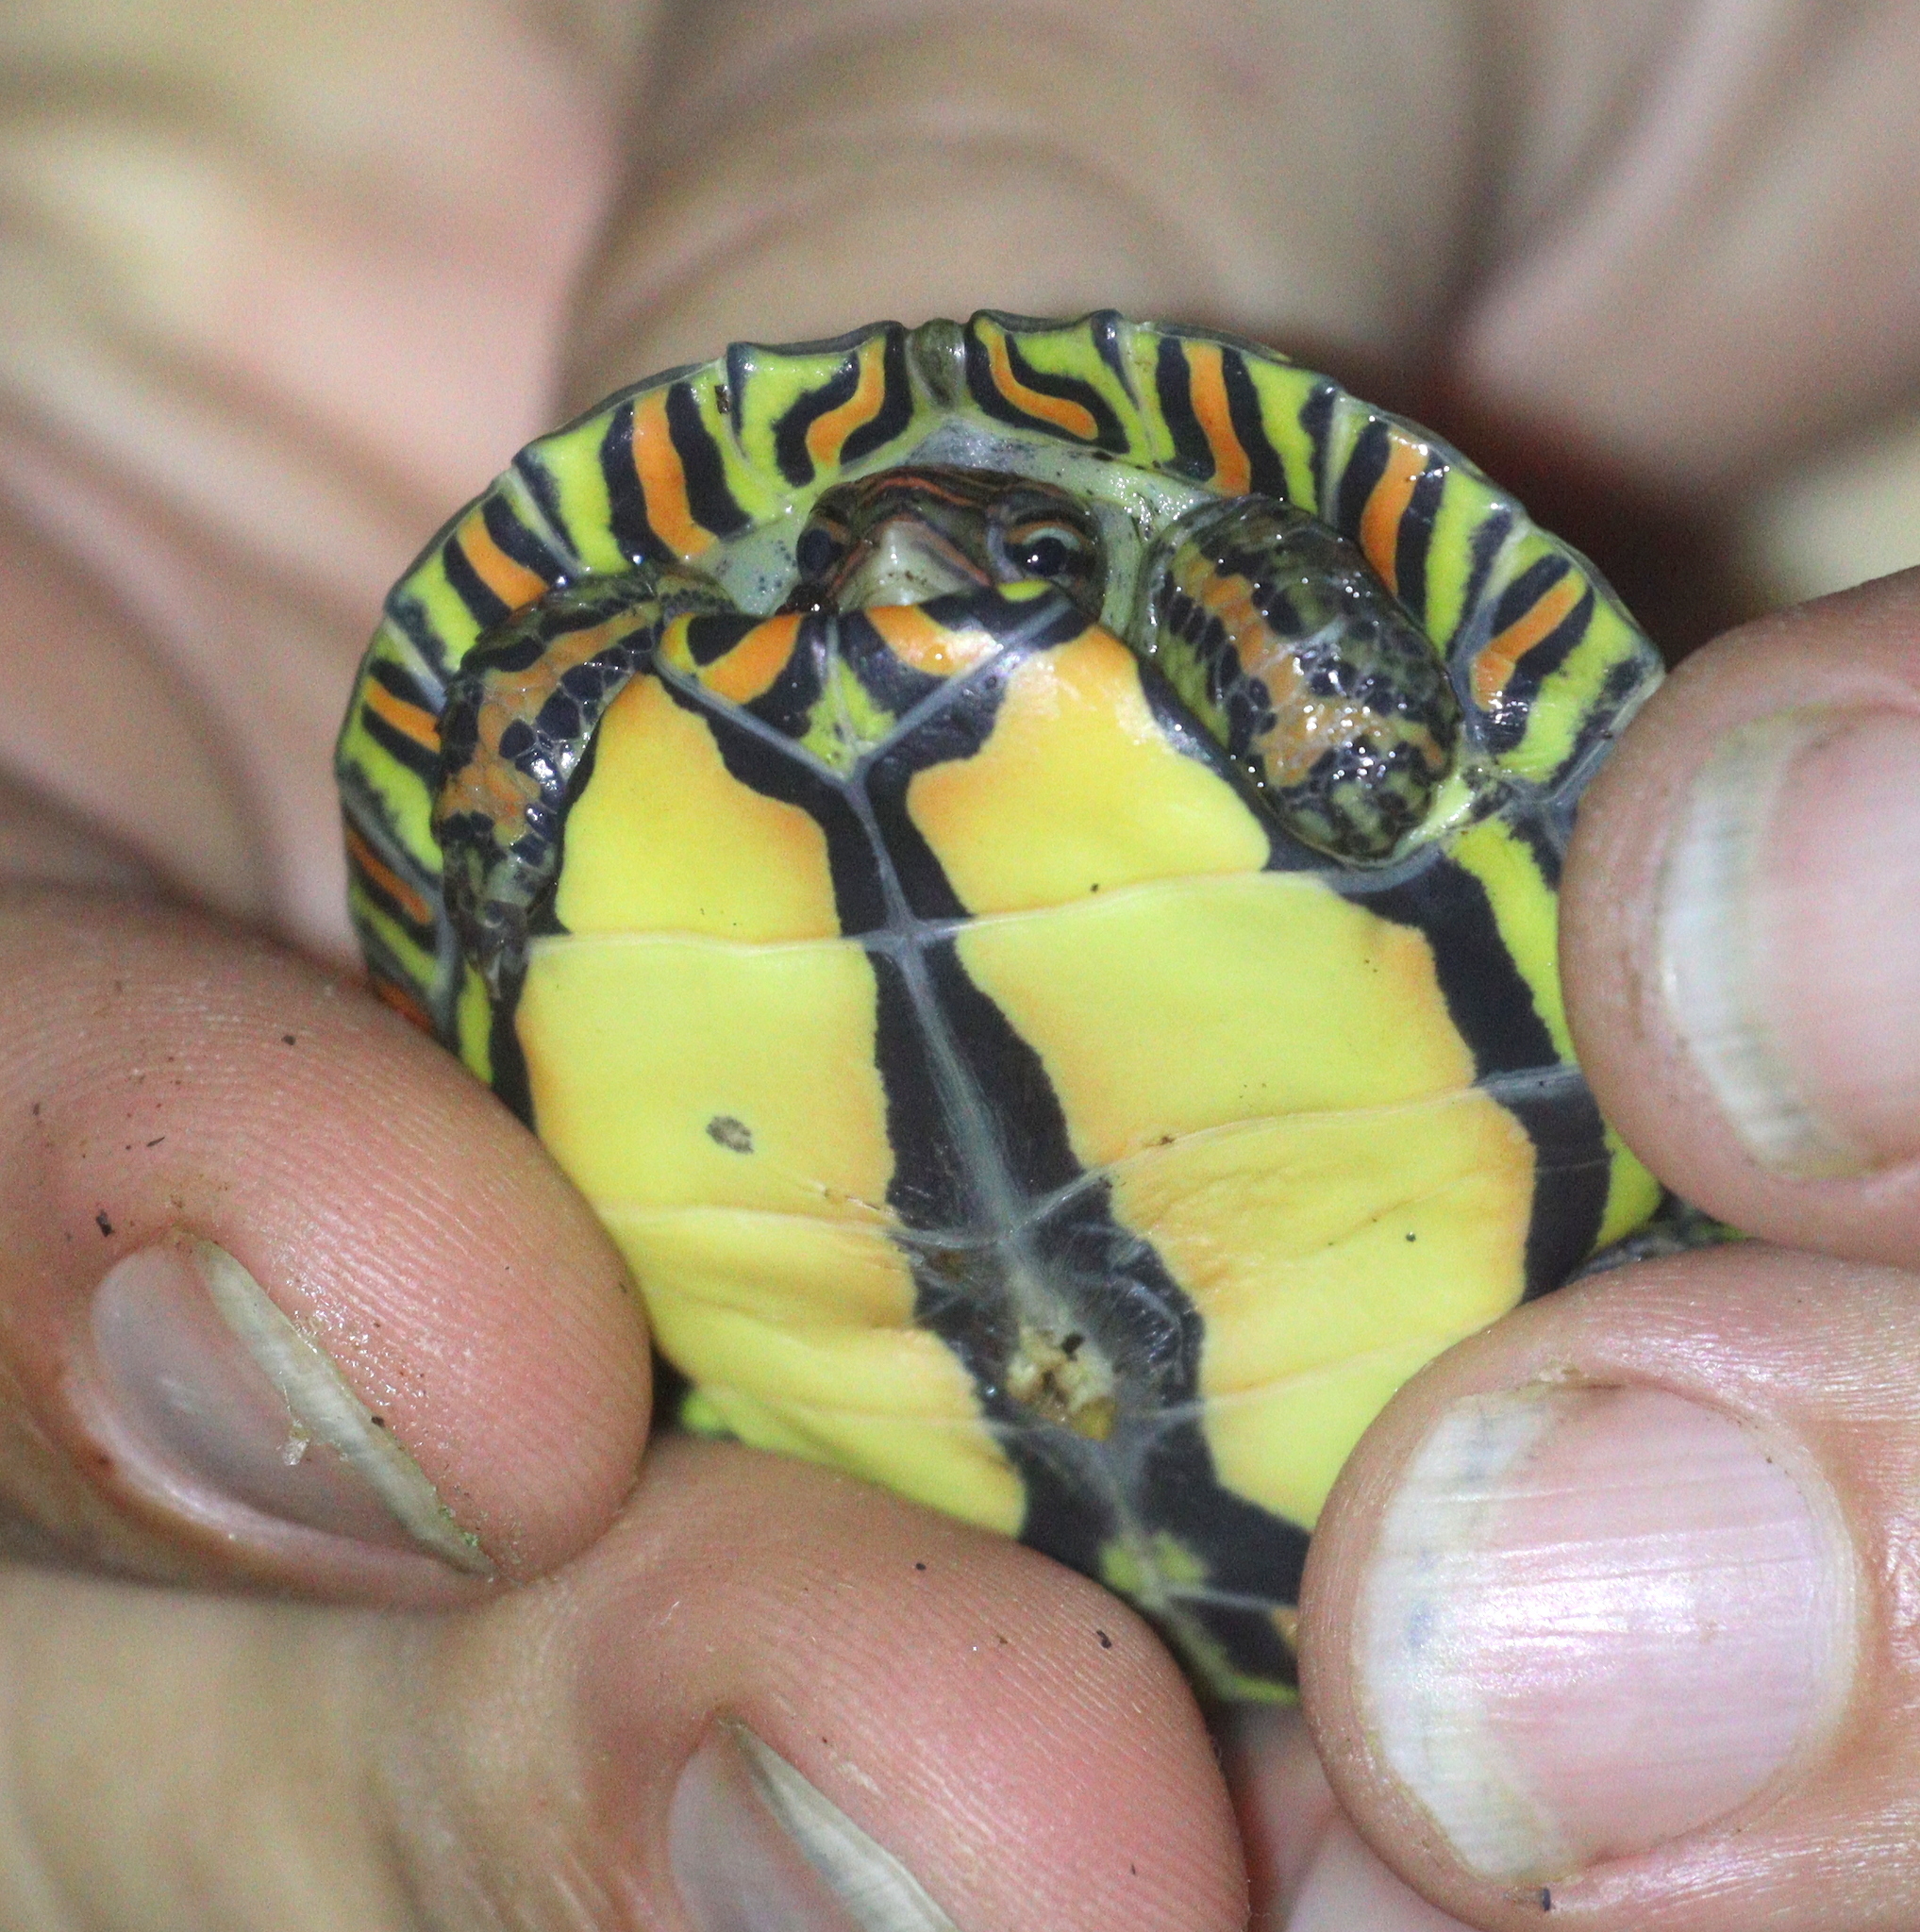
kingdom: Animalia
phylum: Chordata
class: Testudines
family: Geoemydidae
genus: Rhinoclemmys
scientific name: Rhinoclemmys pulcherrima
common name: Painted wood turtle
